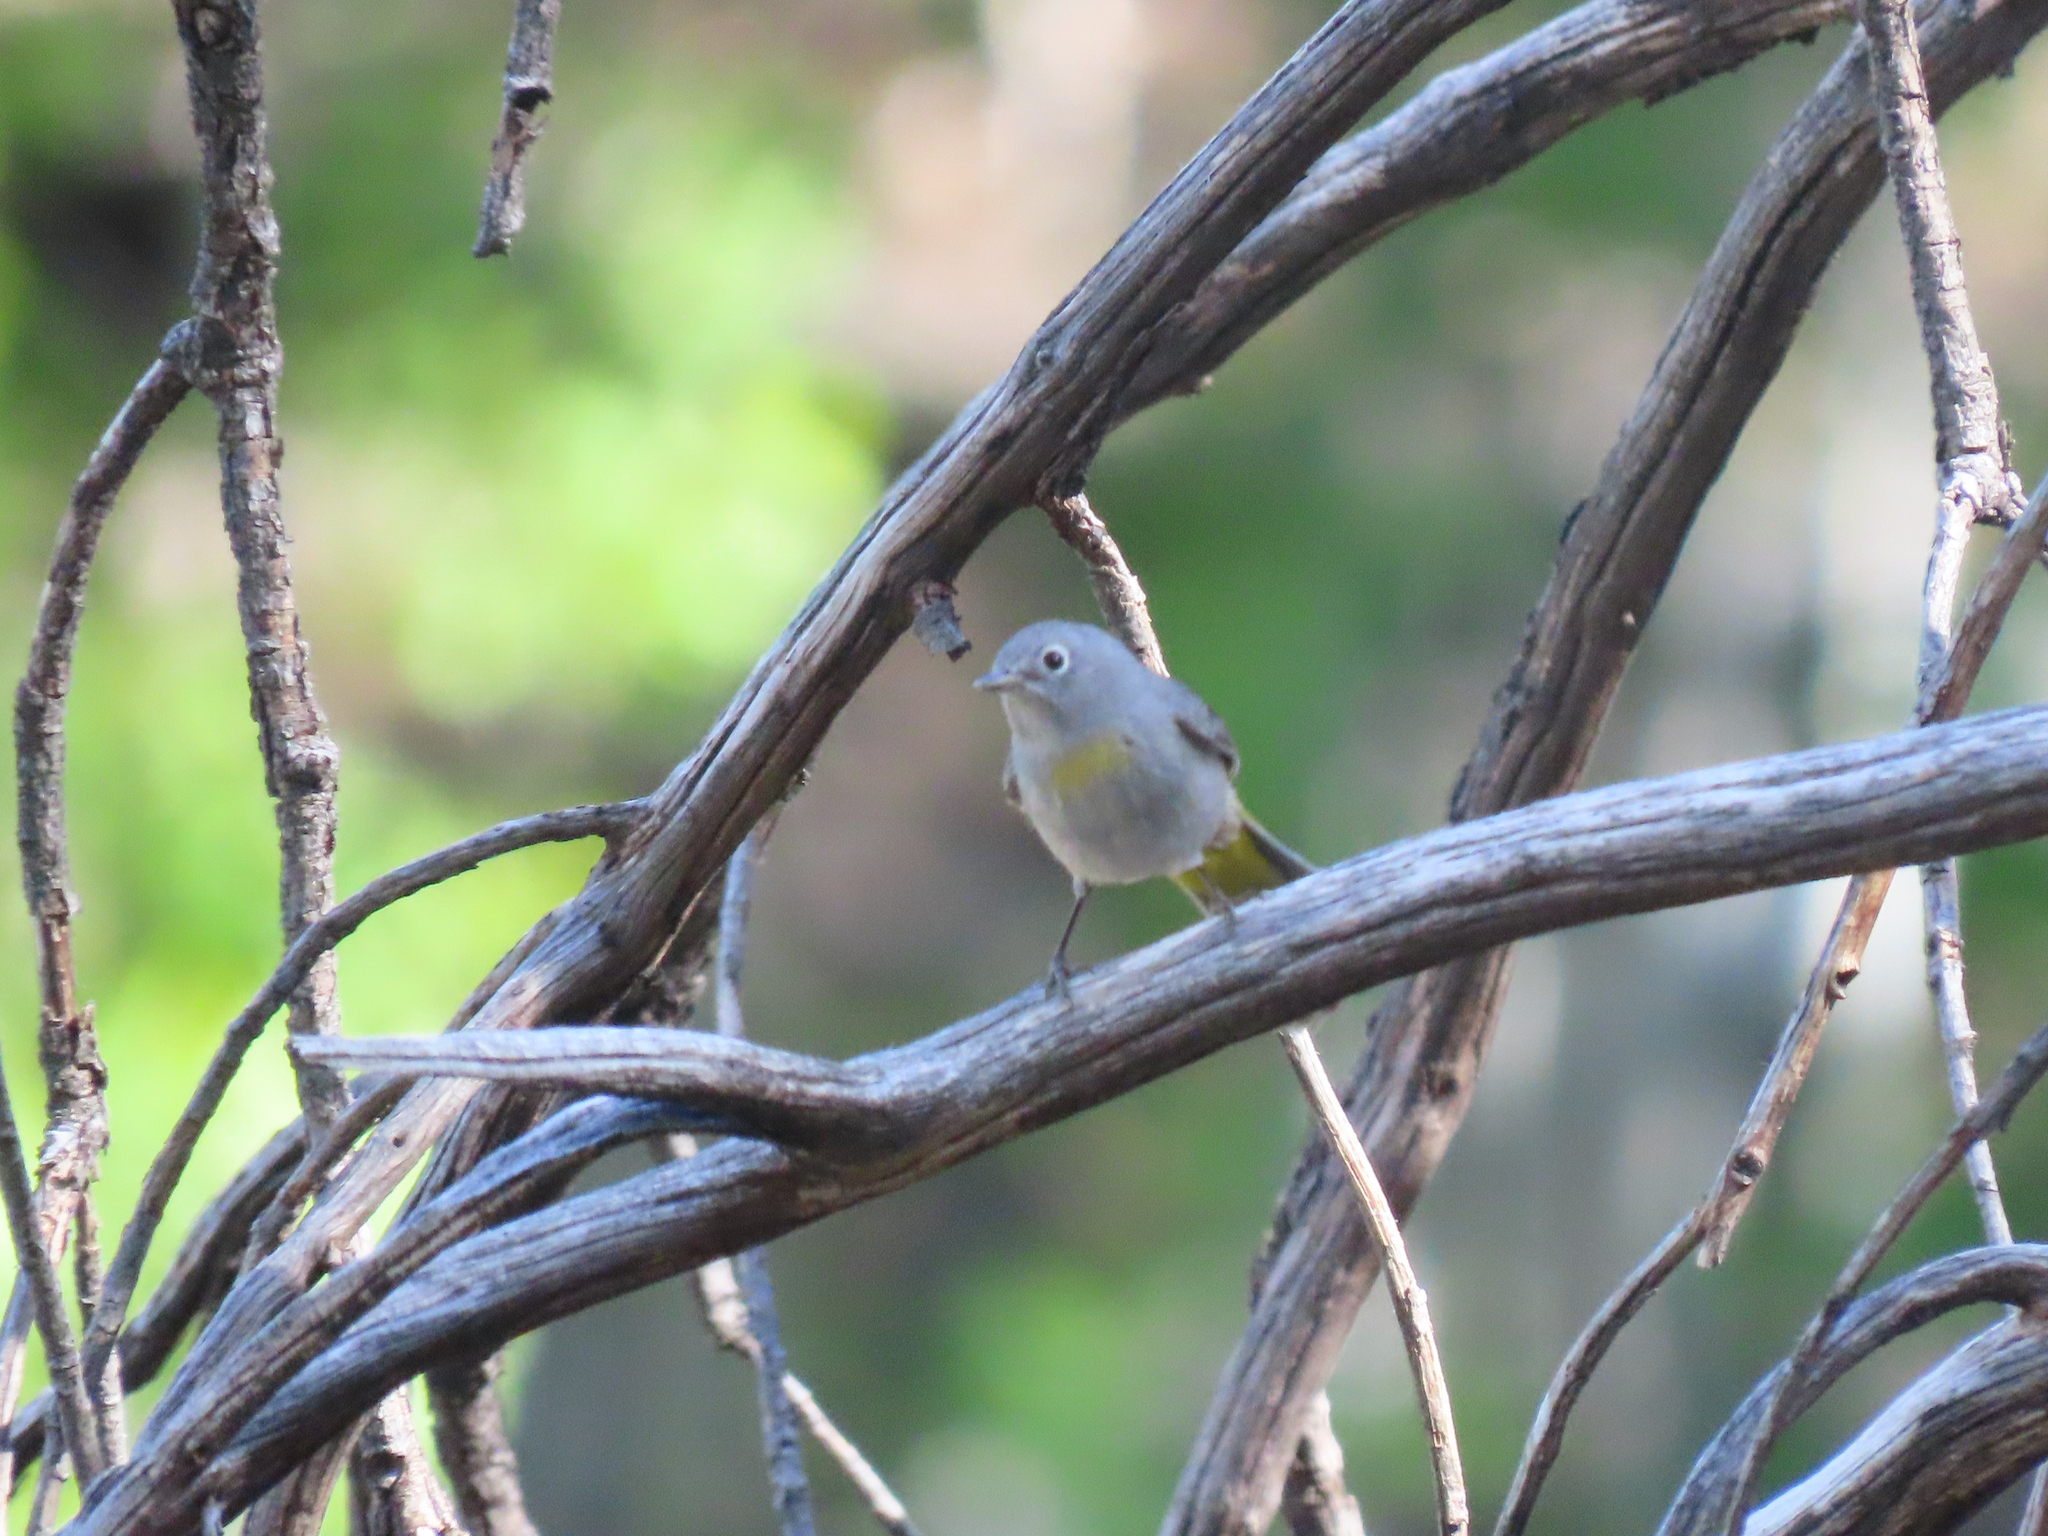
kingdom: Animalia
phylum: Chordata
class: Aves
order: Passeriformes
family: Parulidae
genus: Leiothlypis
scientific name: Leiothlypis virginiae
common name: Virginia's warbler
